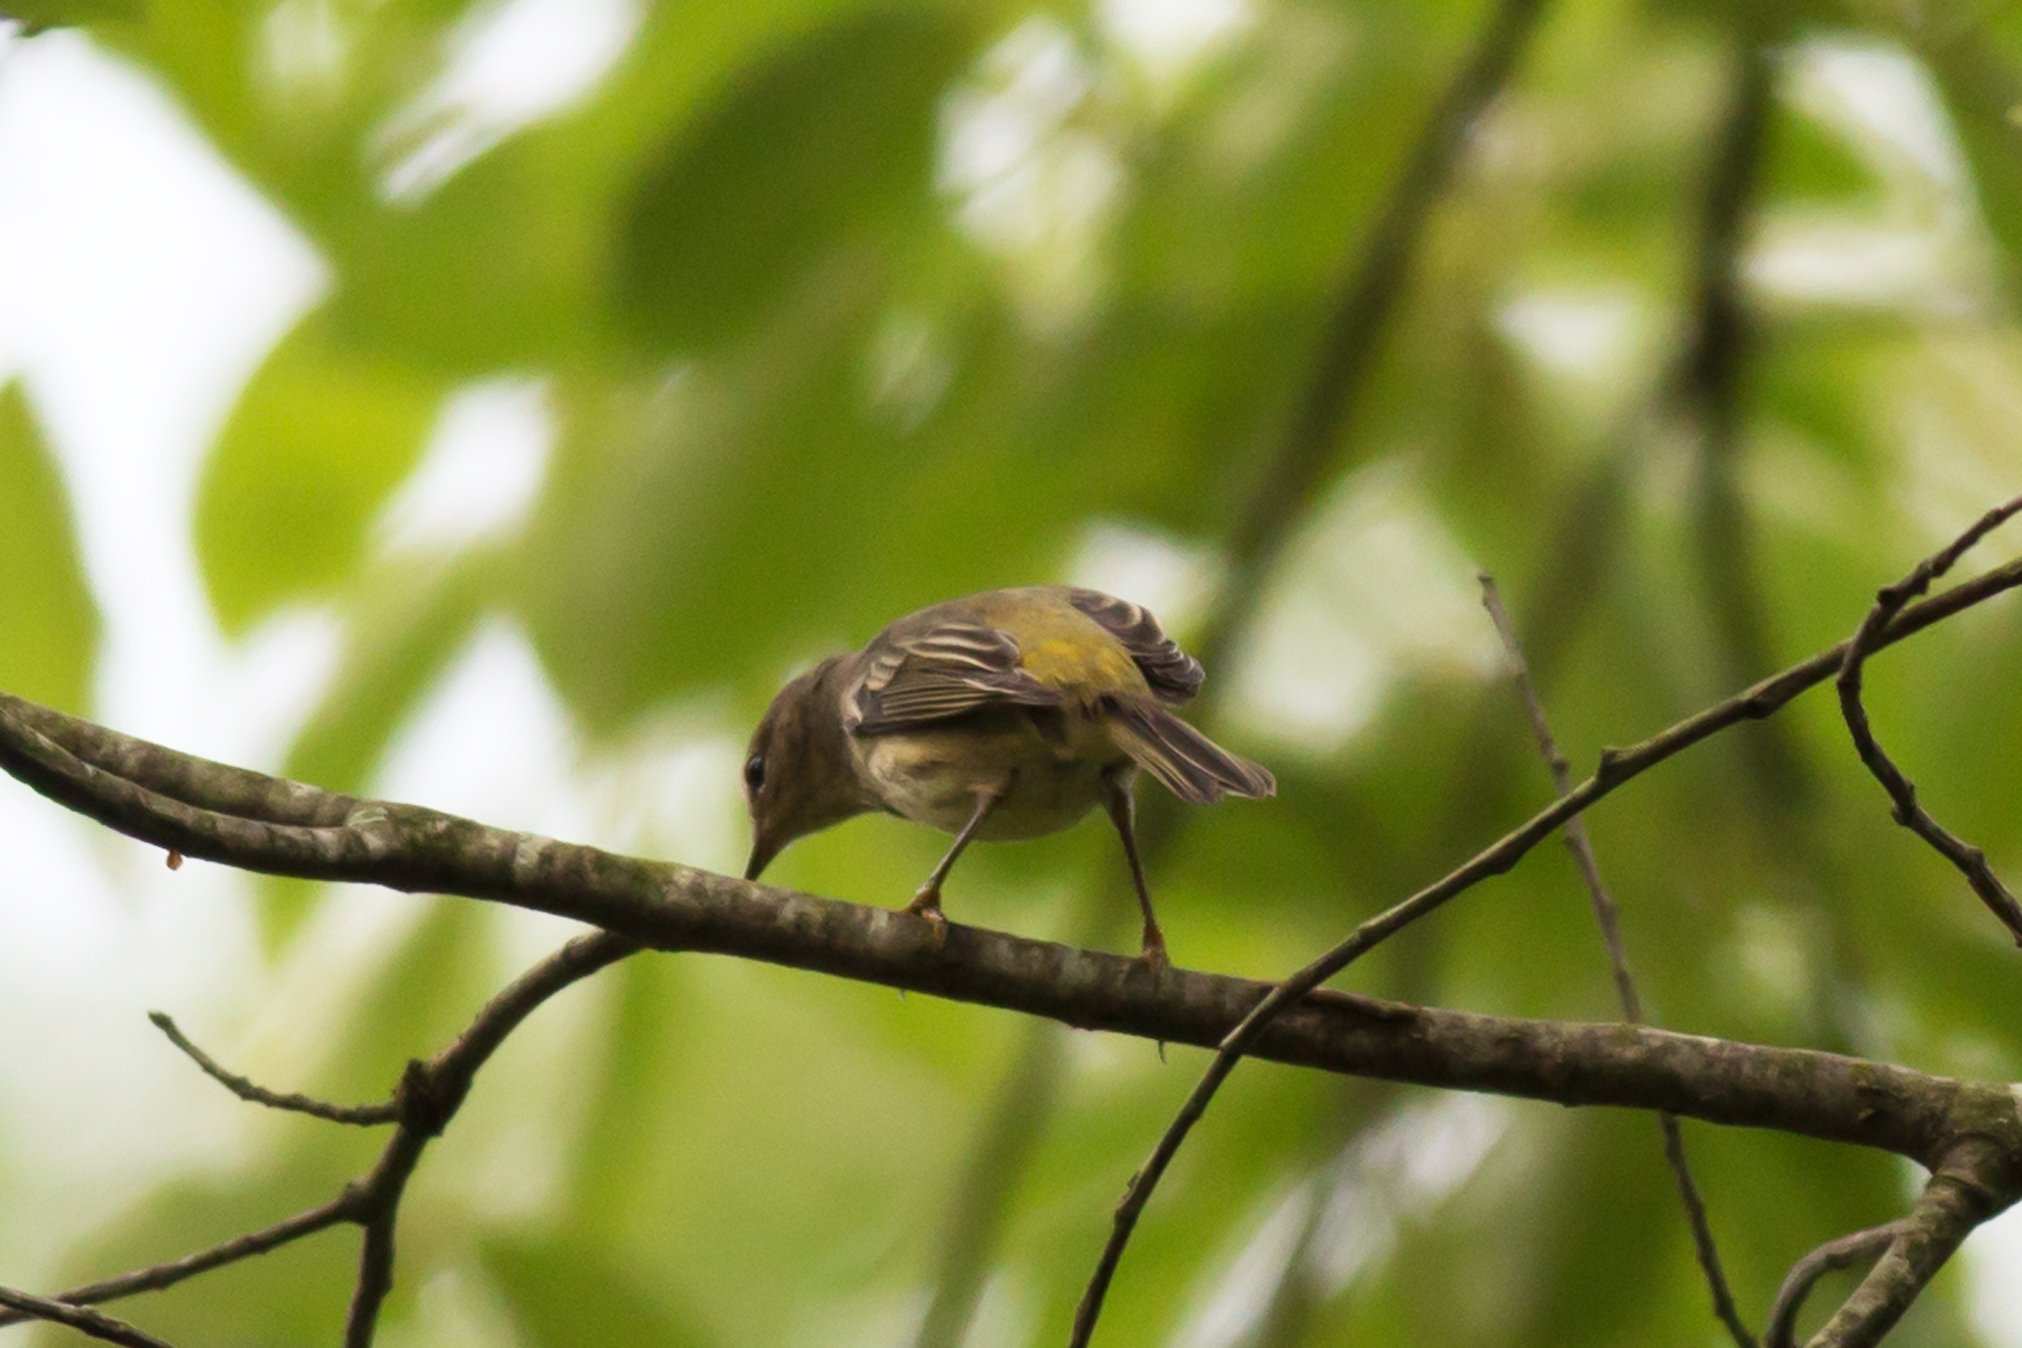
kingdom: Animalia
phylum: Chordata
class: Aves
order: Passeriformes
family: Parulidae
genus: Setophaga
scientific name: Setophaga tigrina
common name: Cape may warbler
